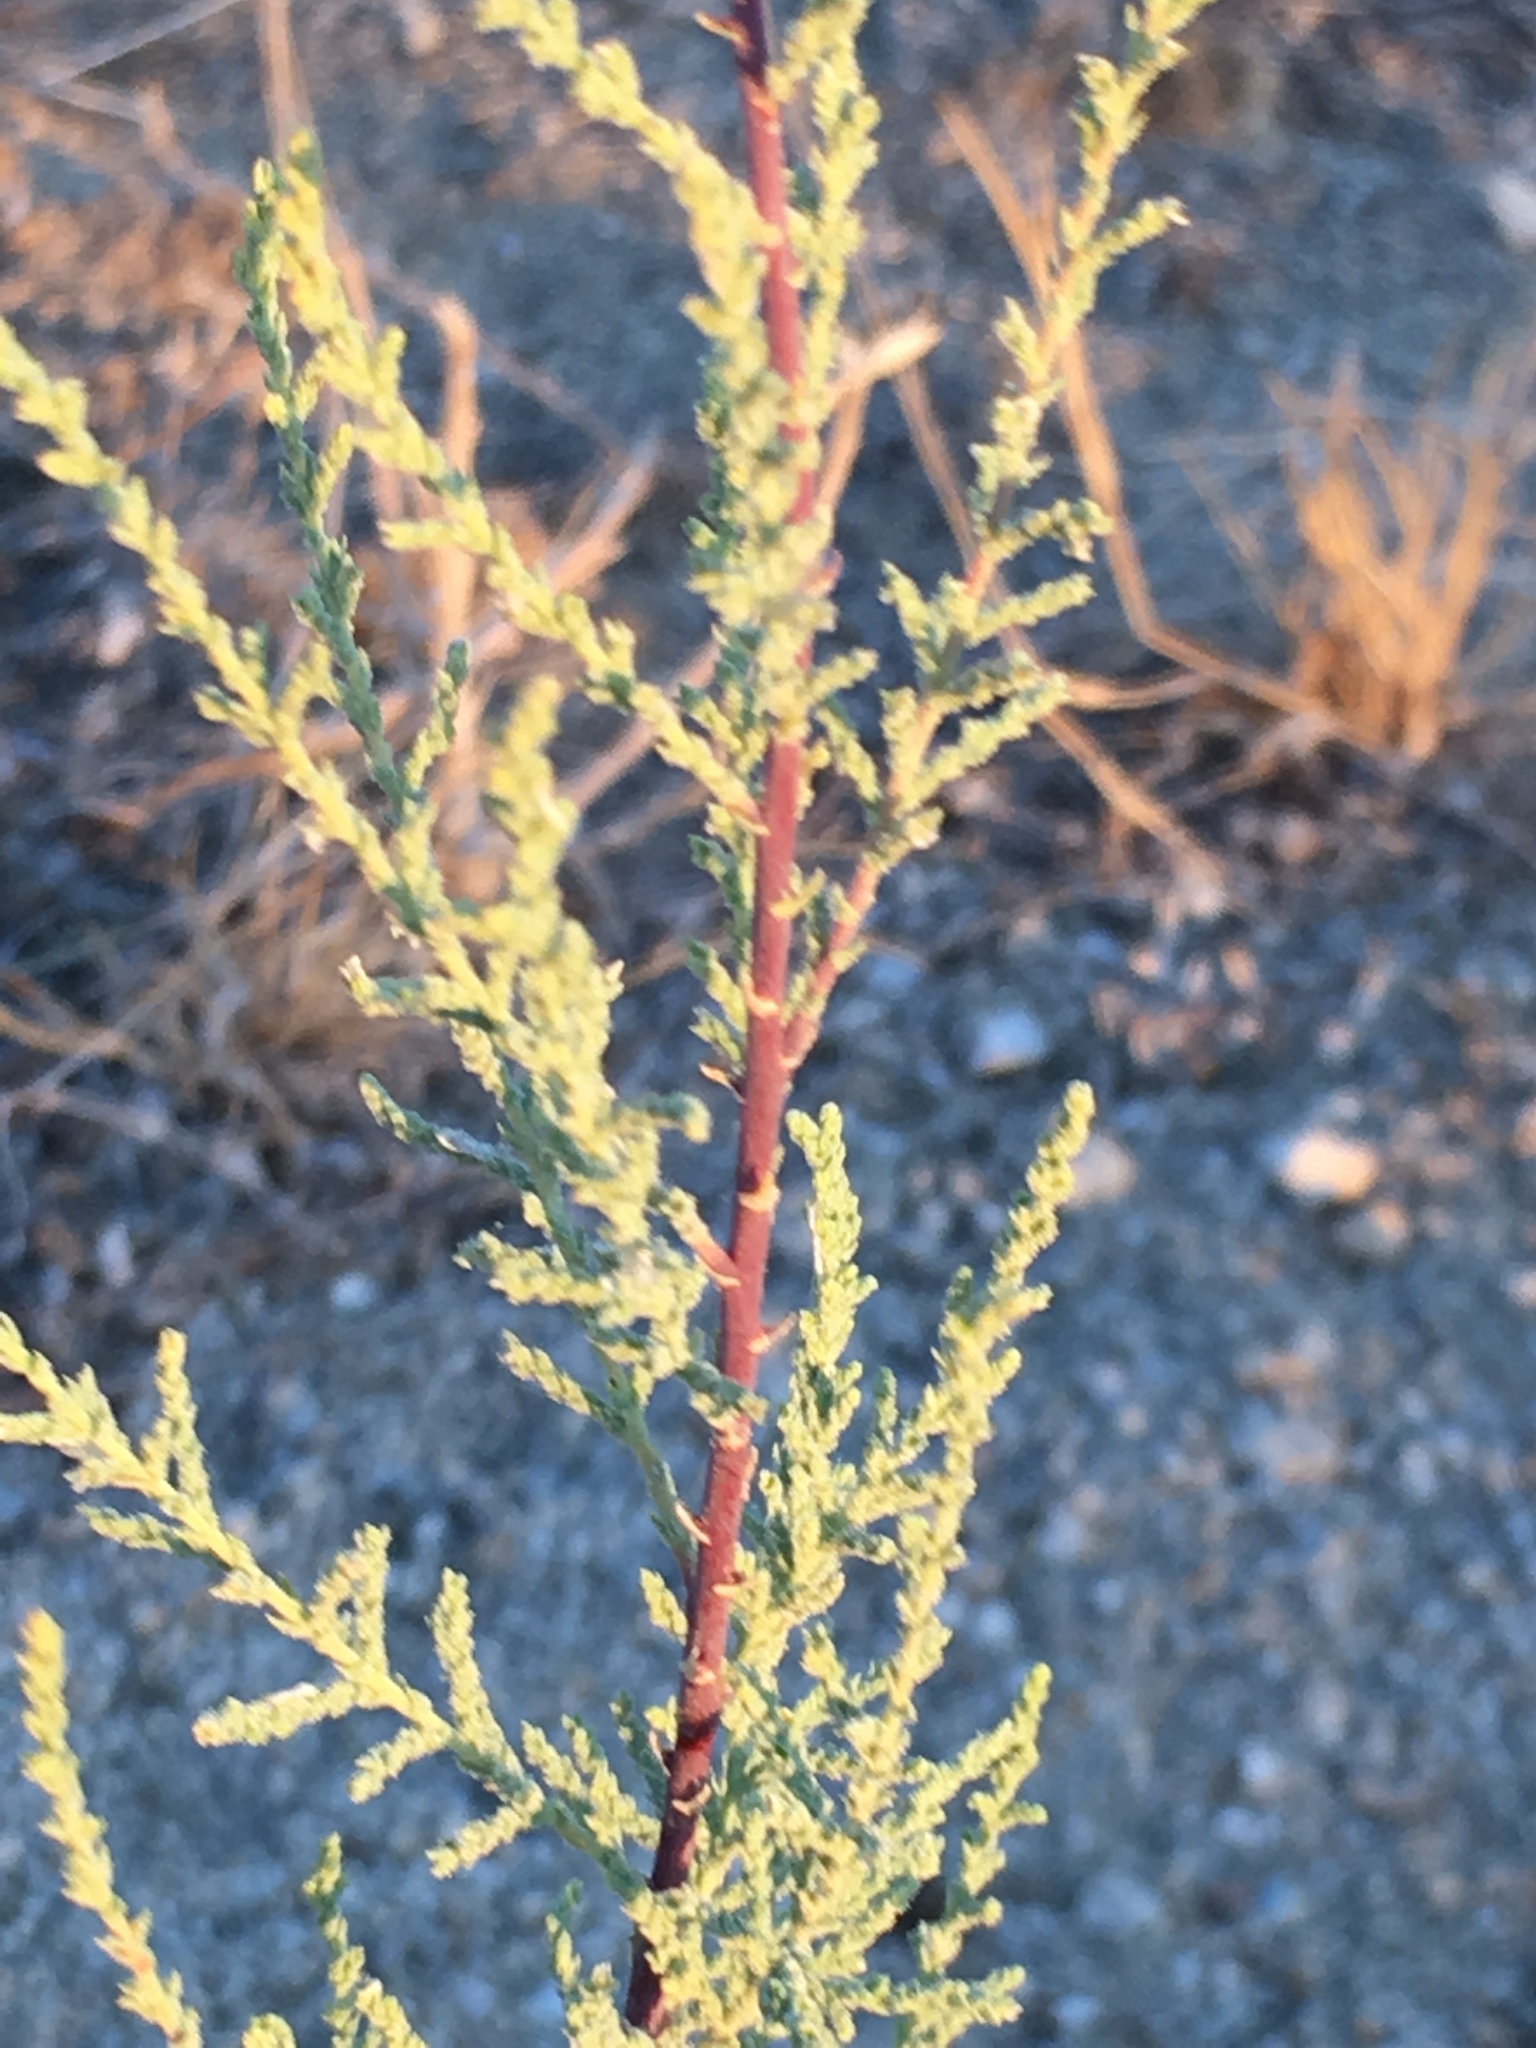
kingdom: Plantae
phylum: Tracheophyta
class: Magnoliopsida
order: Caryophyllales
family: Tamaricaceae
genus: Tamarix
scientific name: Tamarix
